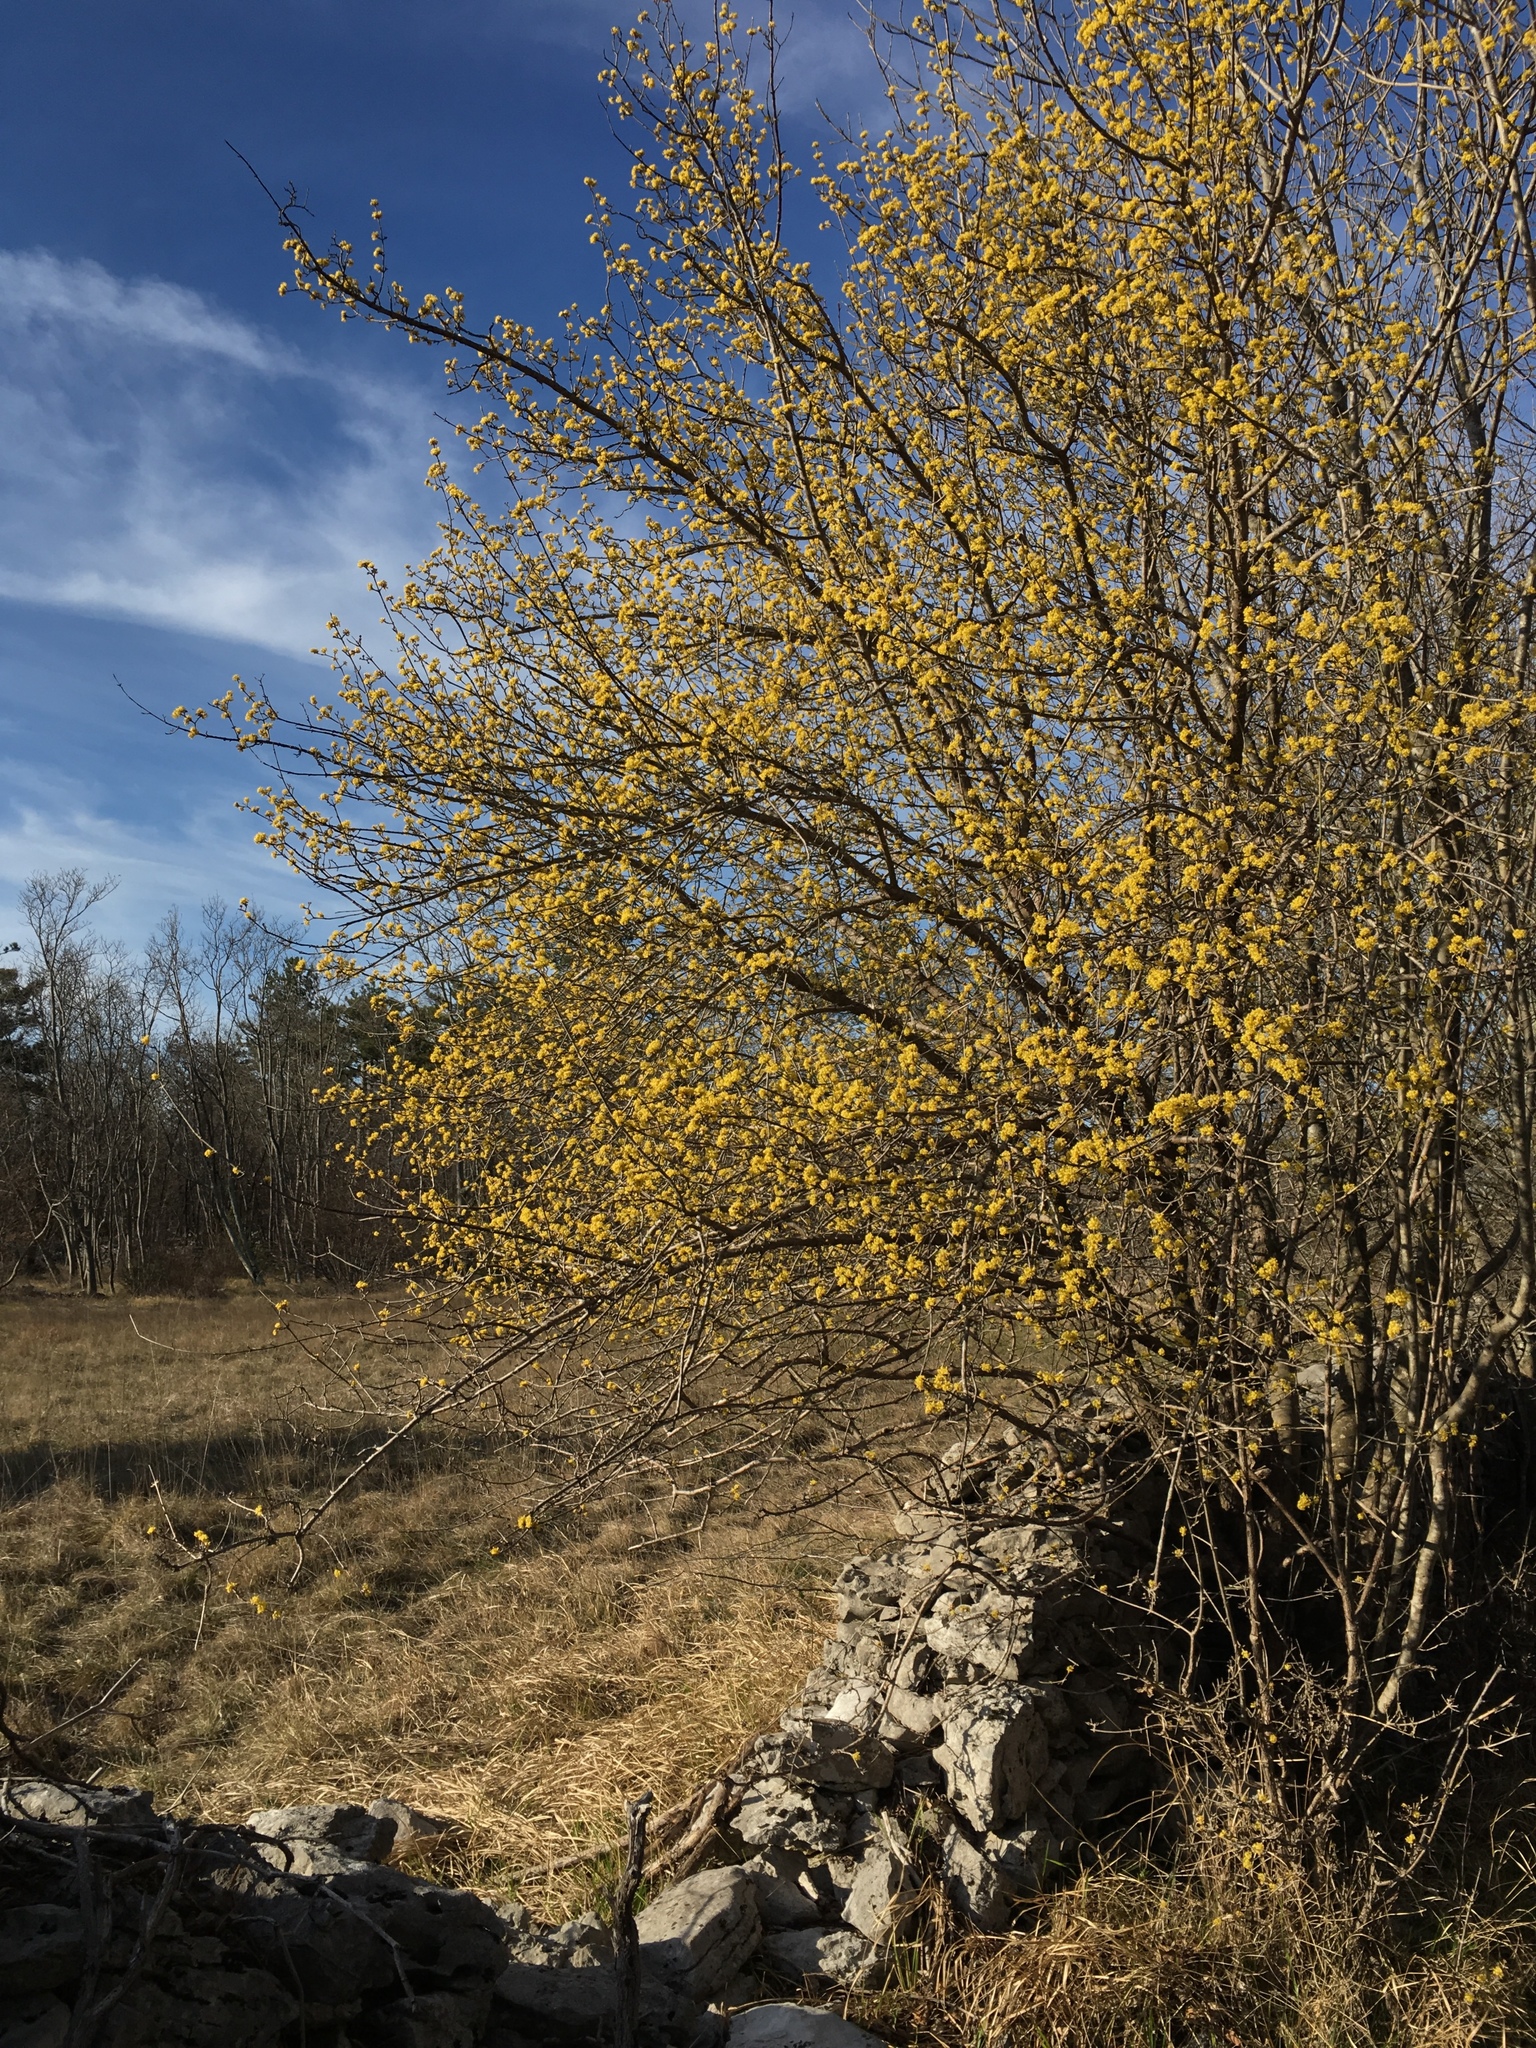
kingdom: Plantae
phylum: Tracheophyta
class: Magnoliopsida
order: Cornales
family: Cornaceae
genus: Cornus
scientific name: Cornus mas
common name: Cornelian-cherry
